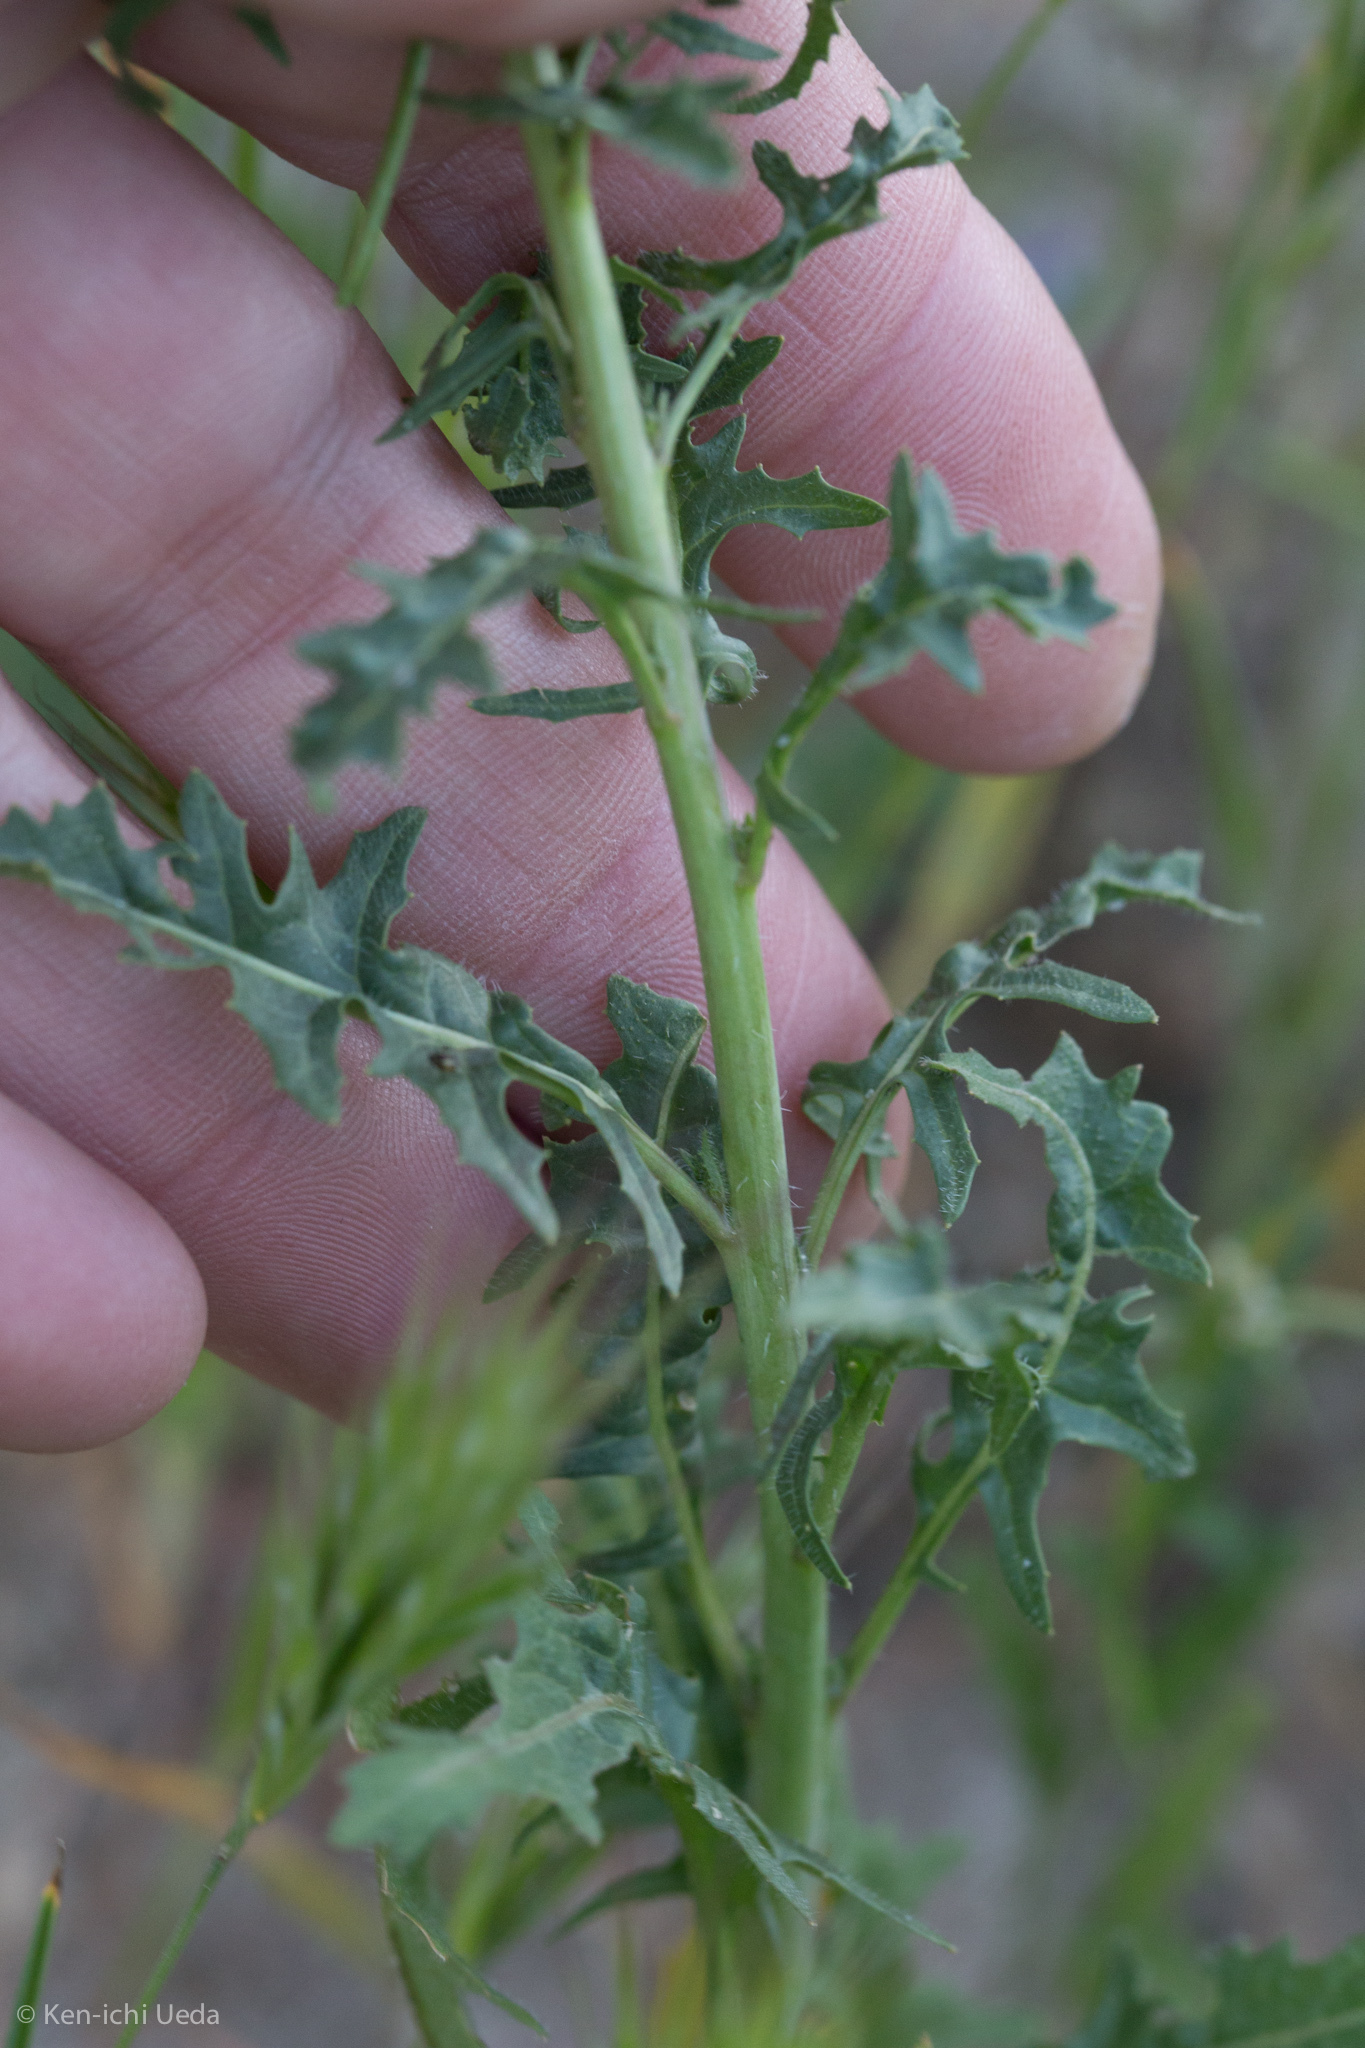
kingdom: Plantae
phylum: Tracheophyta
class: Magnoliopsida
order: Brassicales
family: Brassicaceae
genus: Streptanthus
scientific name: Streptanthus lasiophyllus
